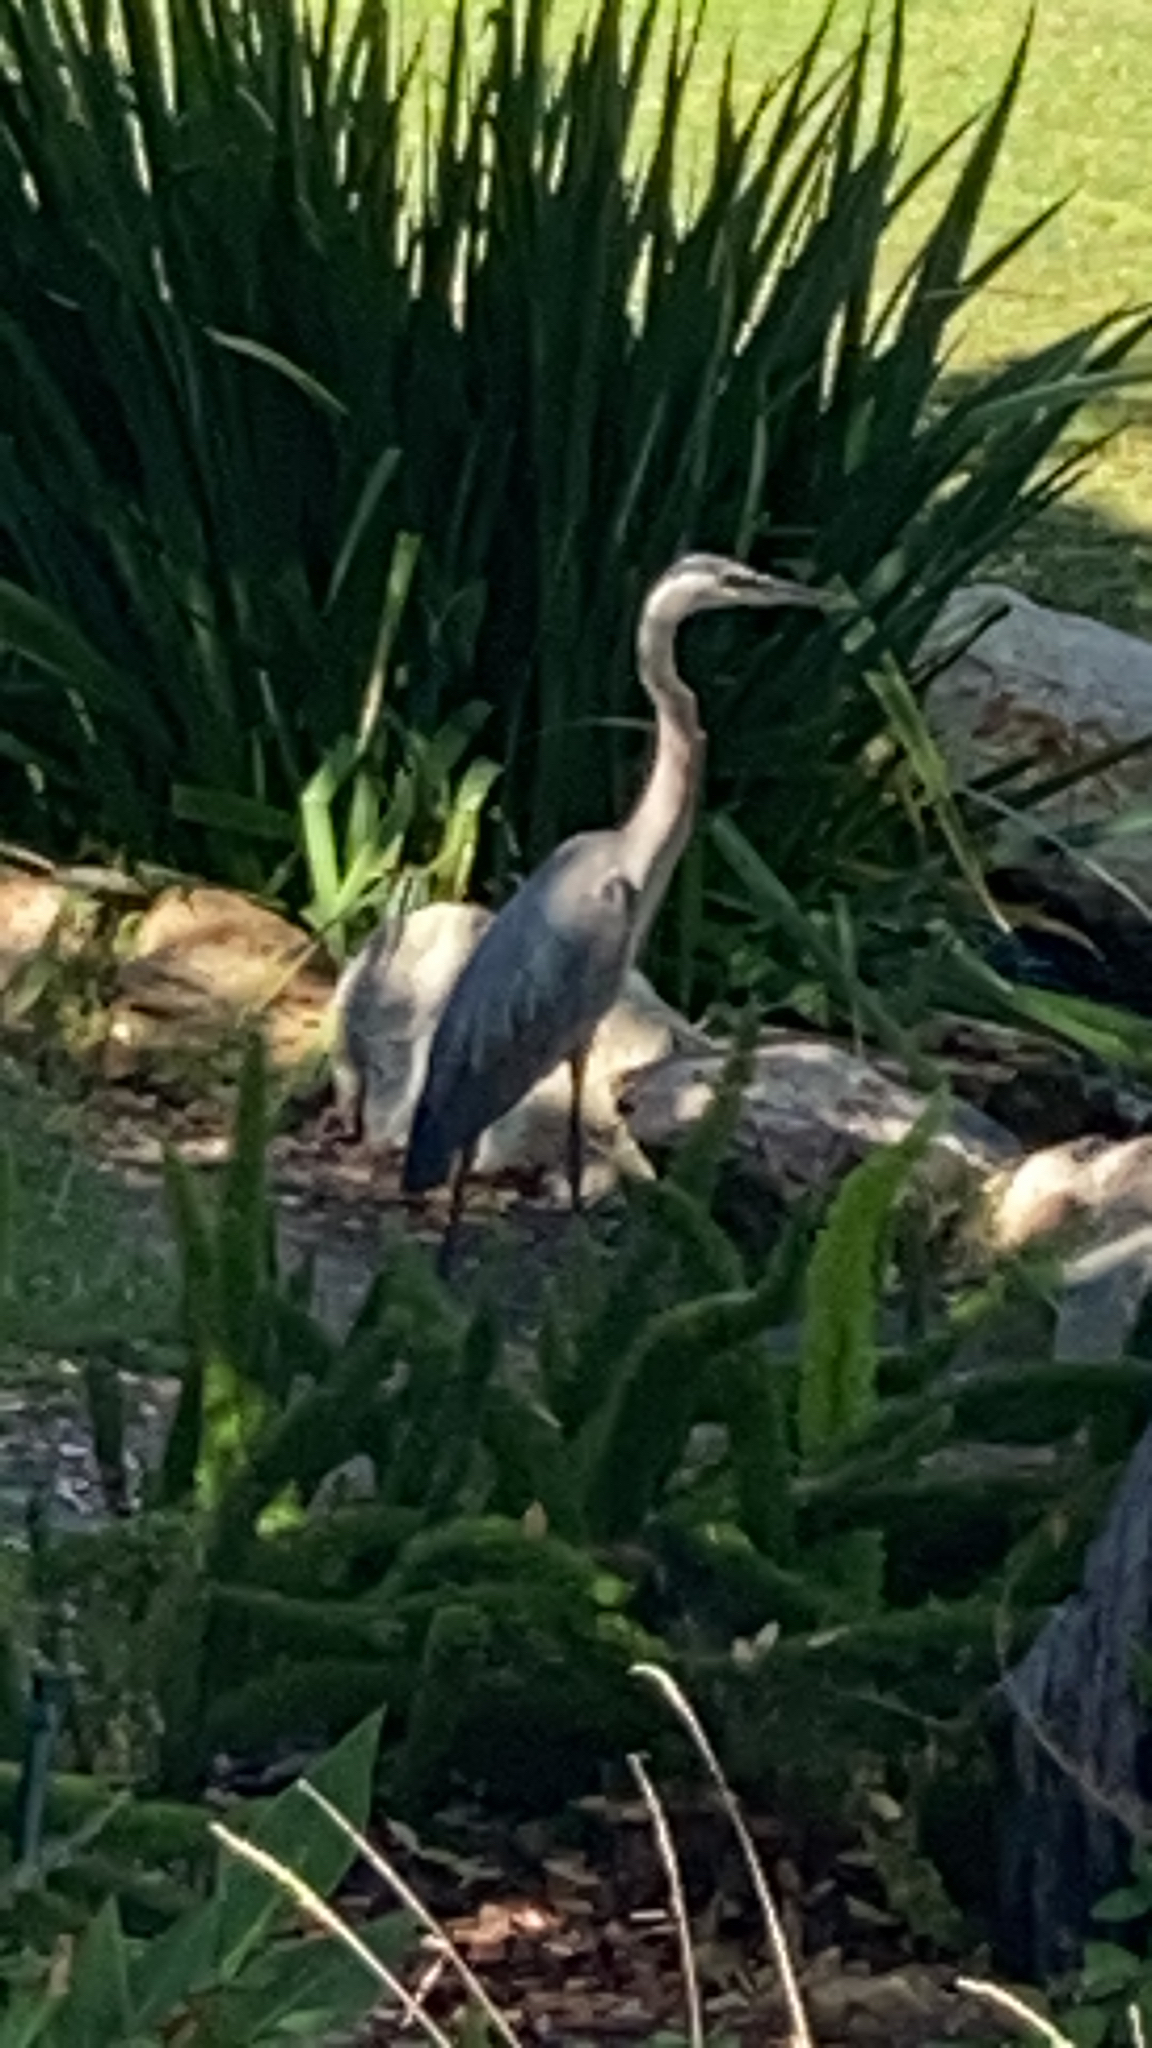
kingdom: Animalia
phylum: Chordata
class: Aves
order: Pelecaniformes
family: Ardeidae
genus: Ardea
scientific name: Ardea herodias
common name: Great blue heron
